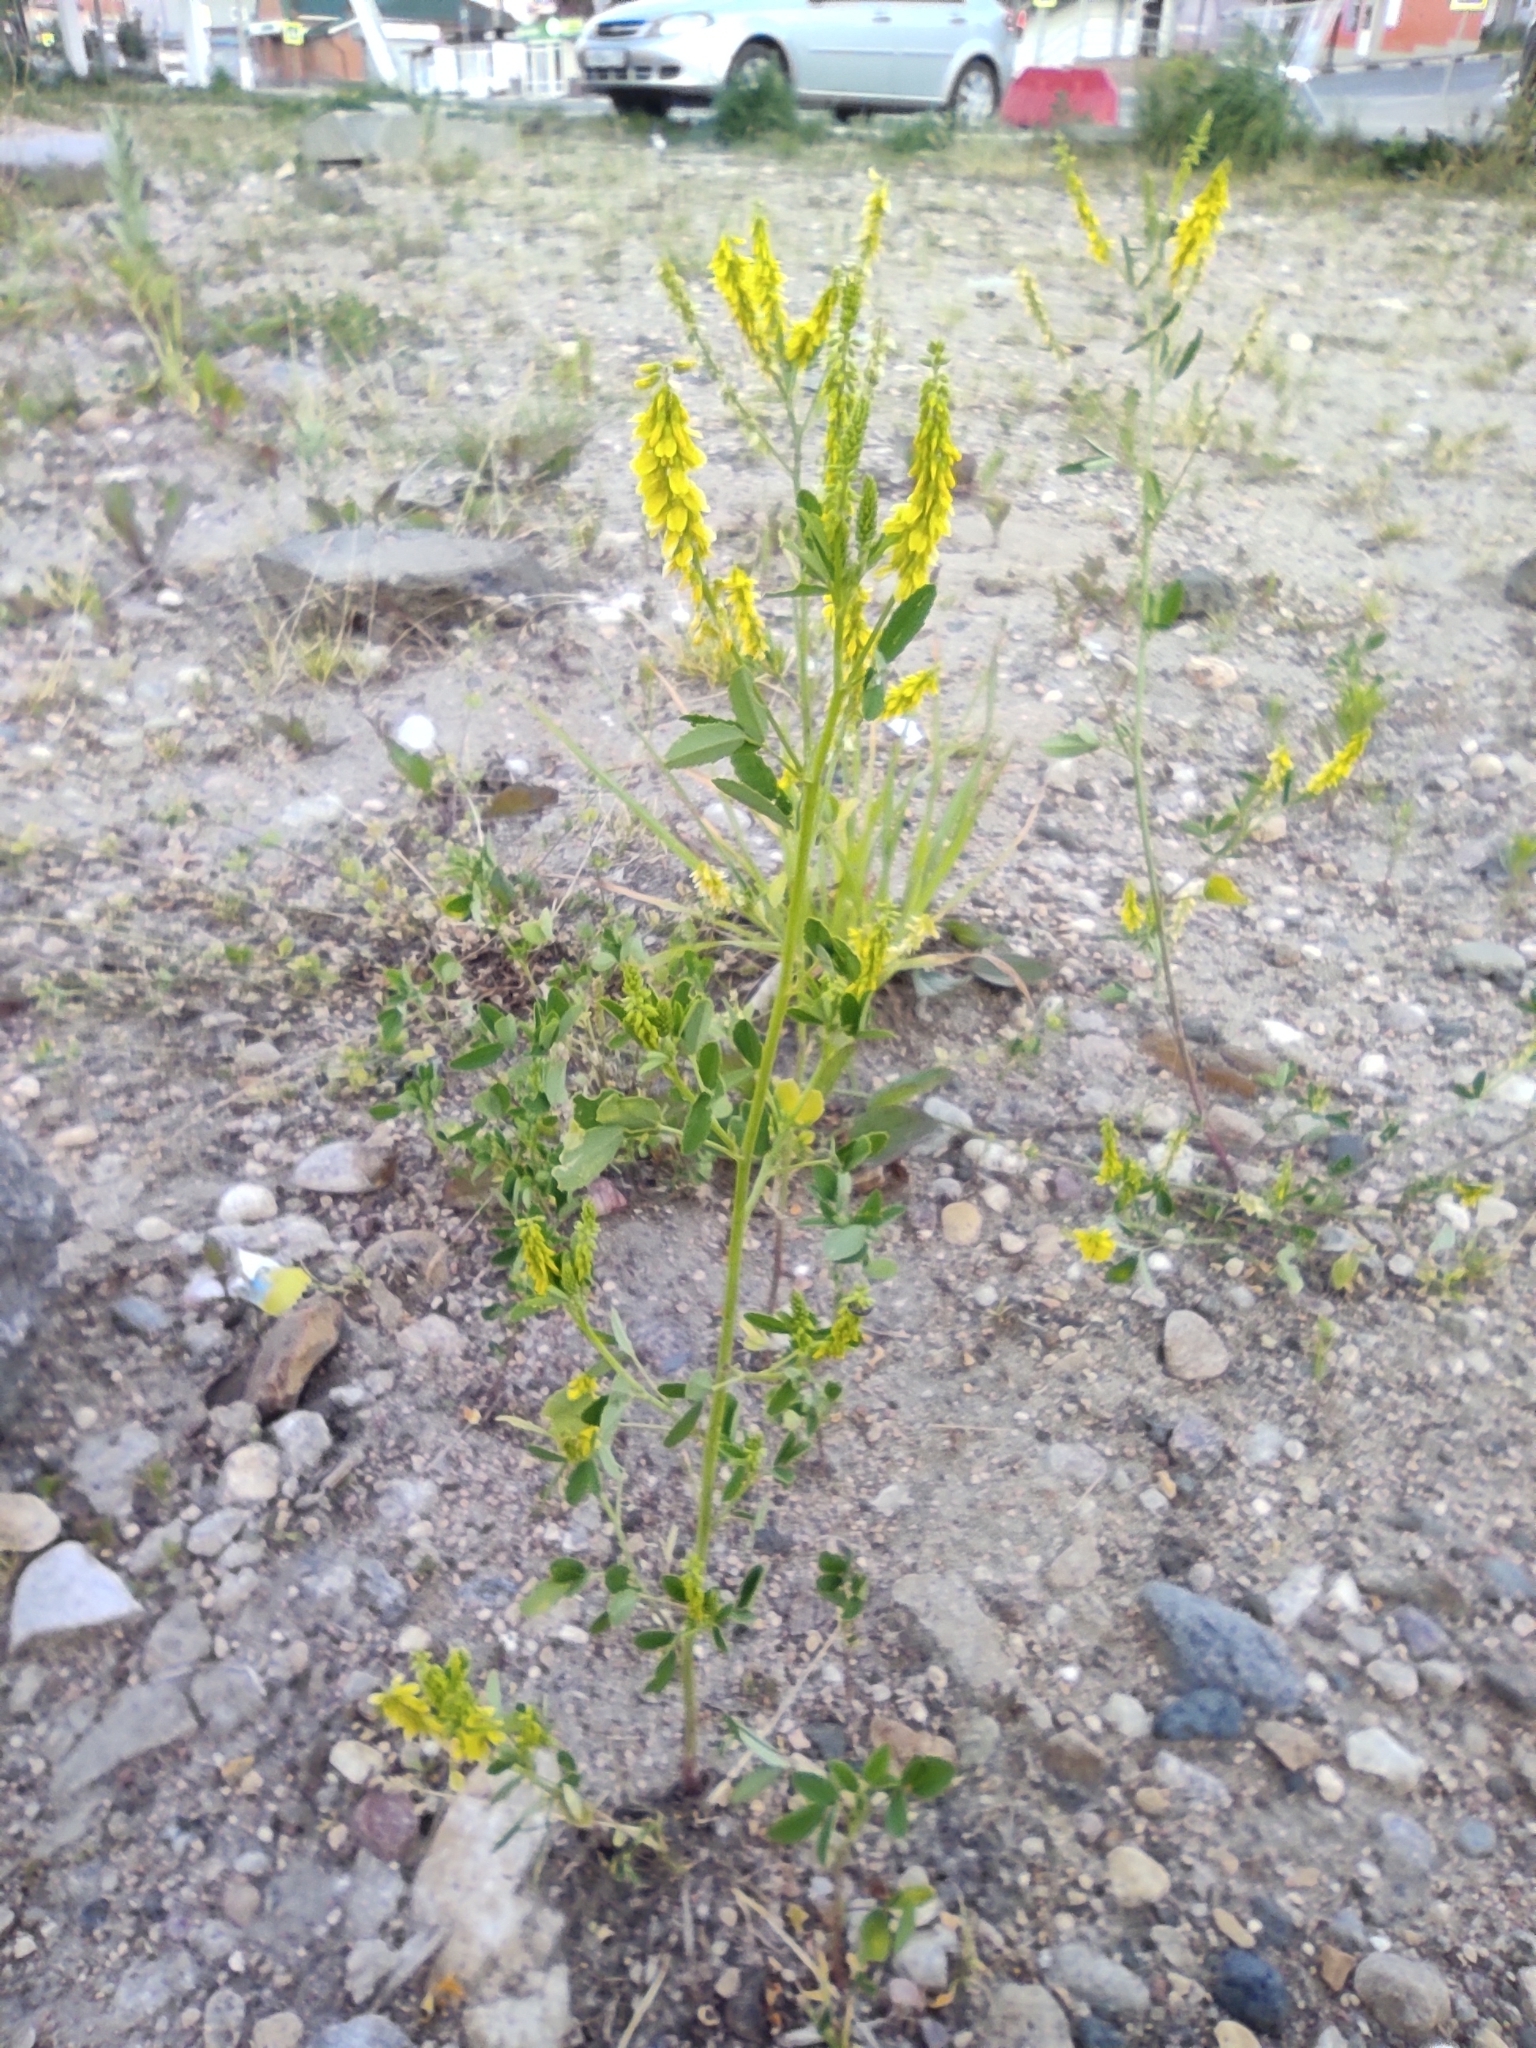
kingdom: Plantae
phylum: Tracheophyta
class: Magnoliopsida
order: Fabales
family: Fabaceae
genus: Melilotus
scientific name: Melilotus officinalis
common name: Sweetclover
